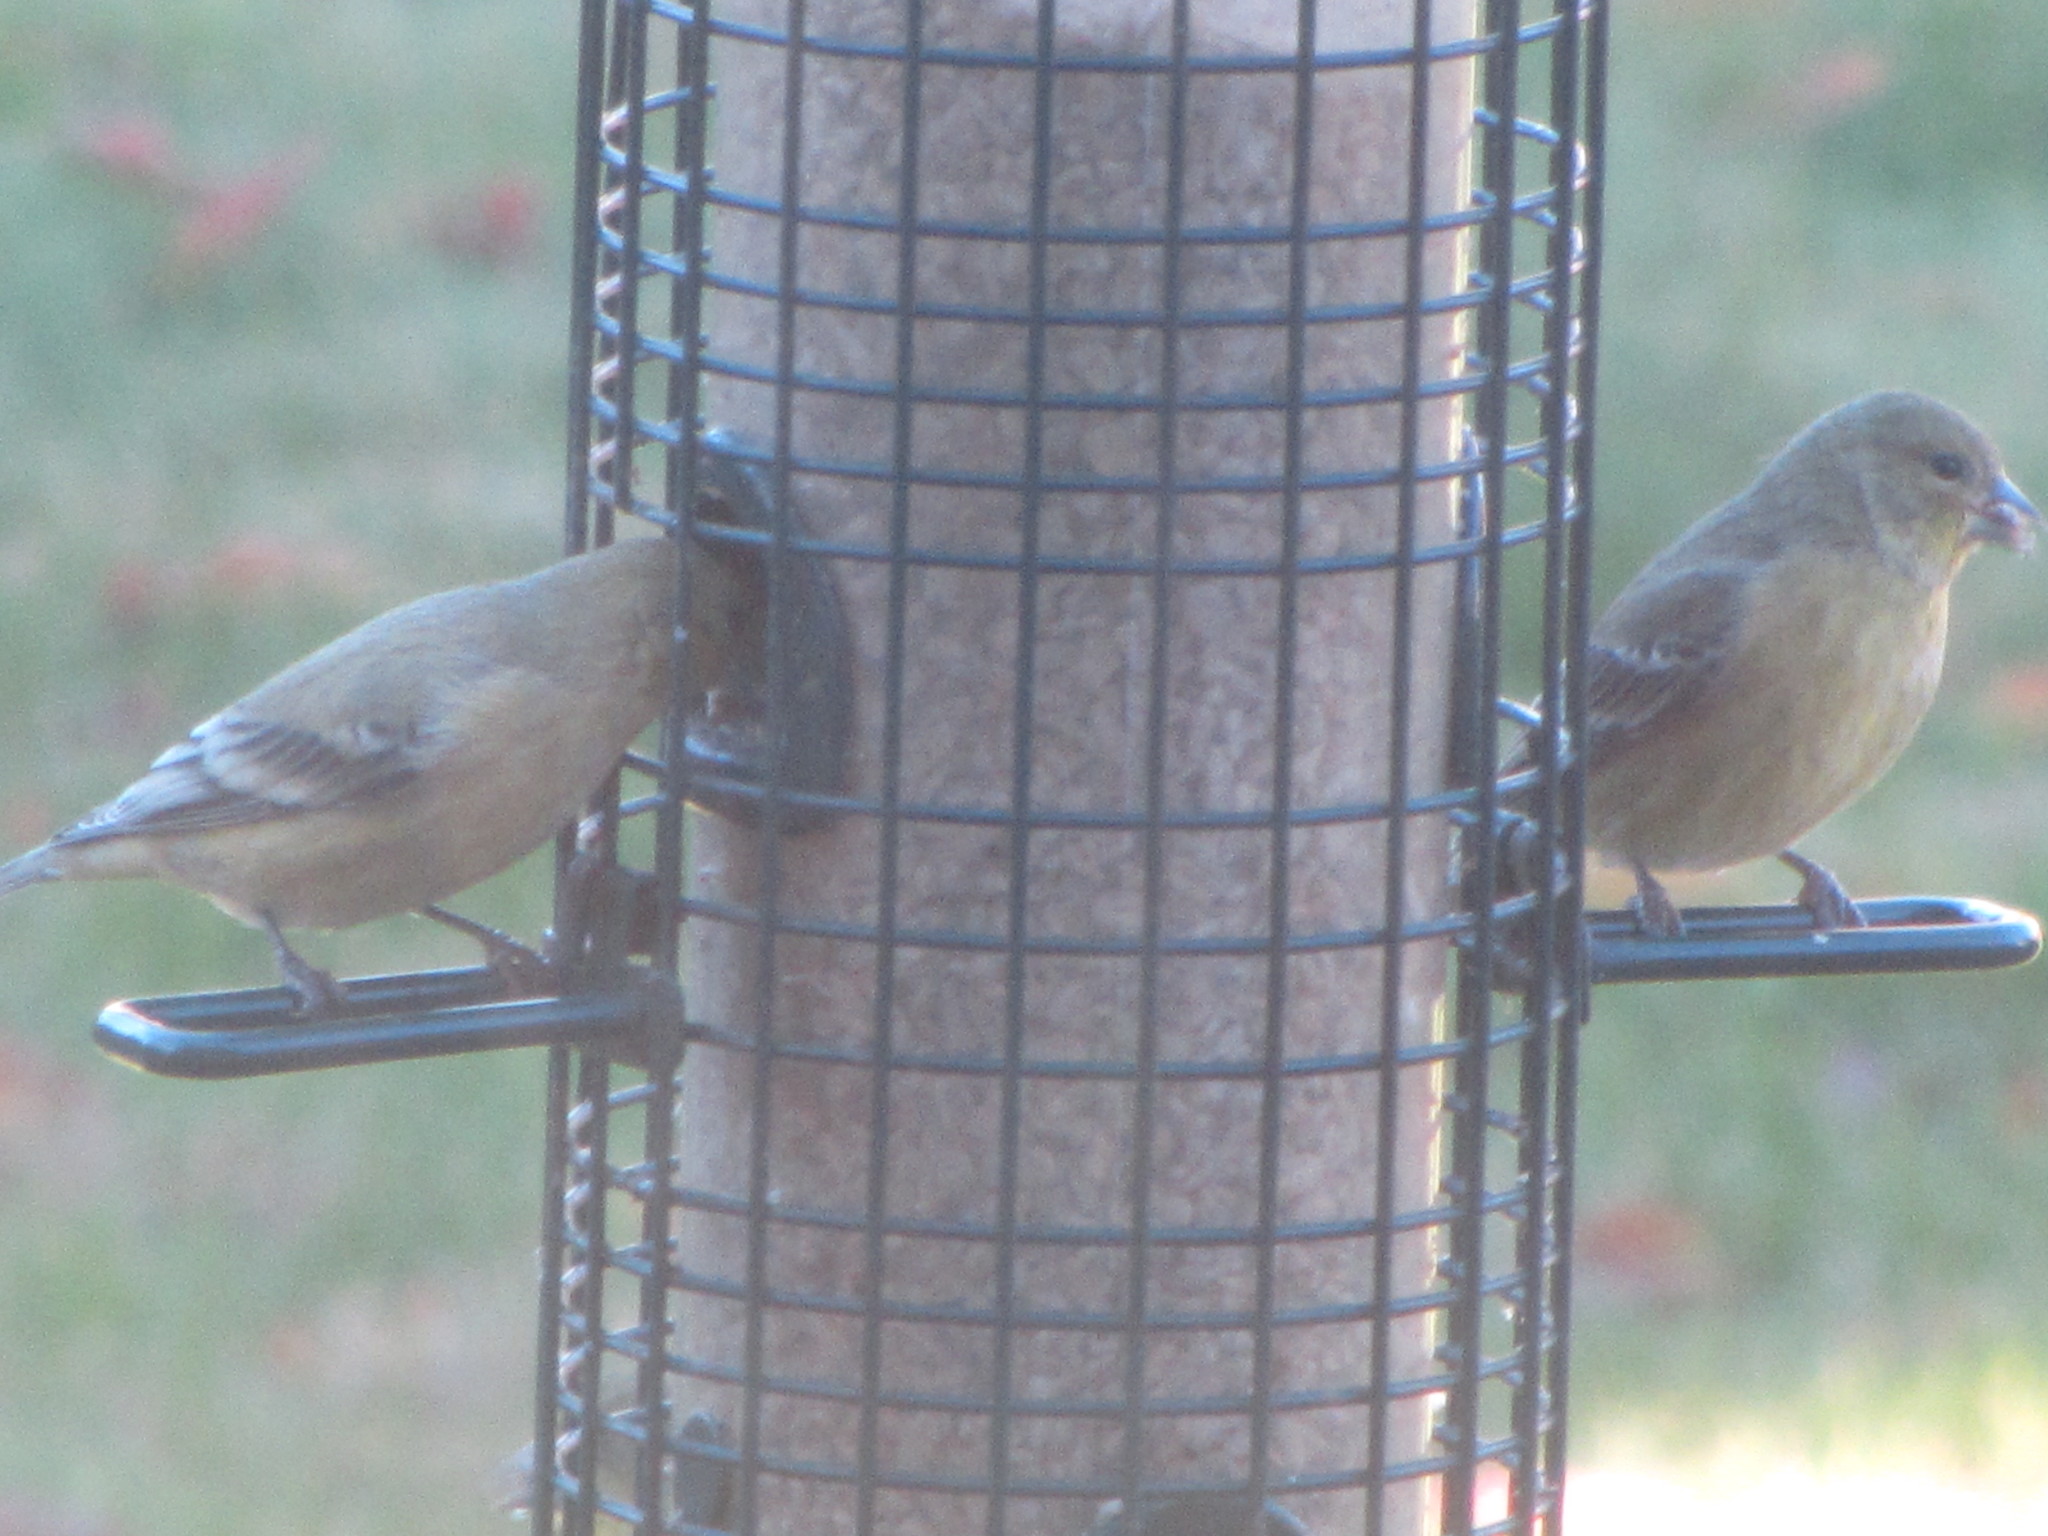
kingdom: Animalia
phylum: Chordata
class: Aves
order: Passeriformes
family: Fringillidae
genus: Spinus
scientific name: Spinus psaltria
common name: Lesser goldfinch
